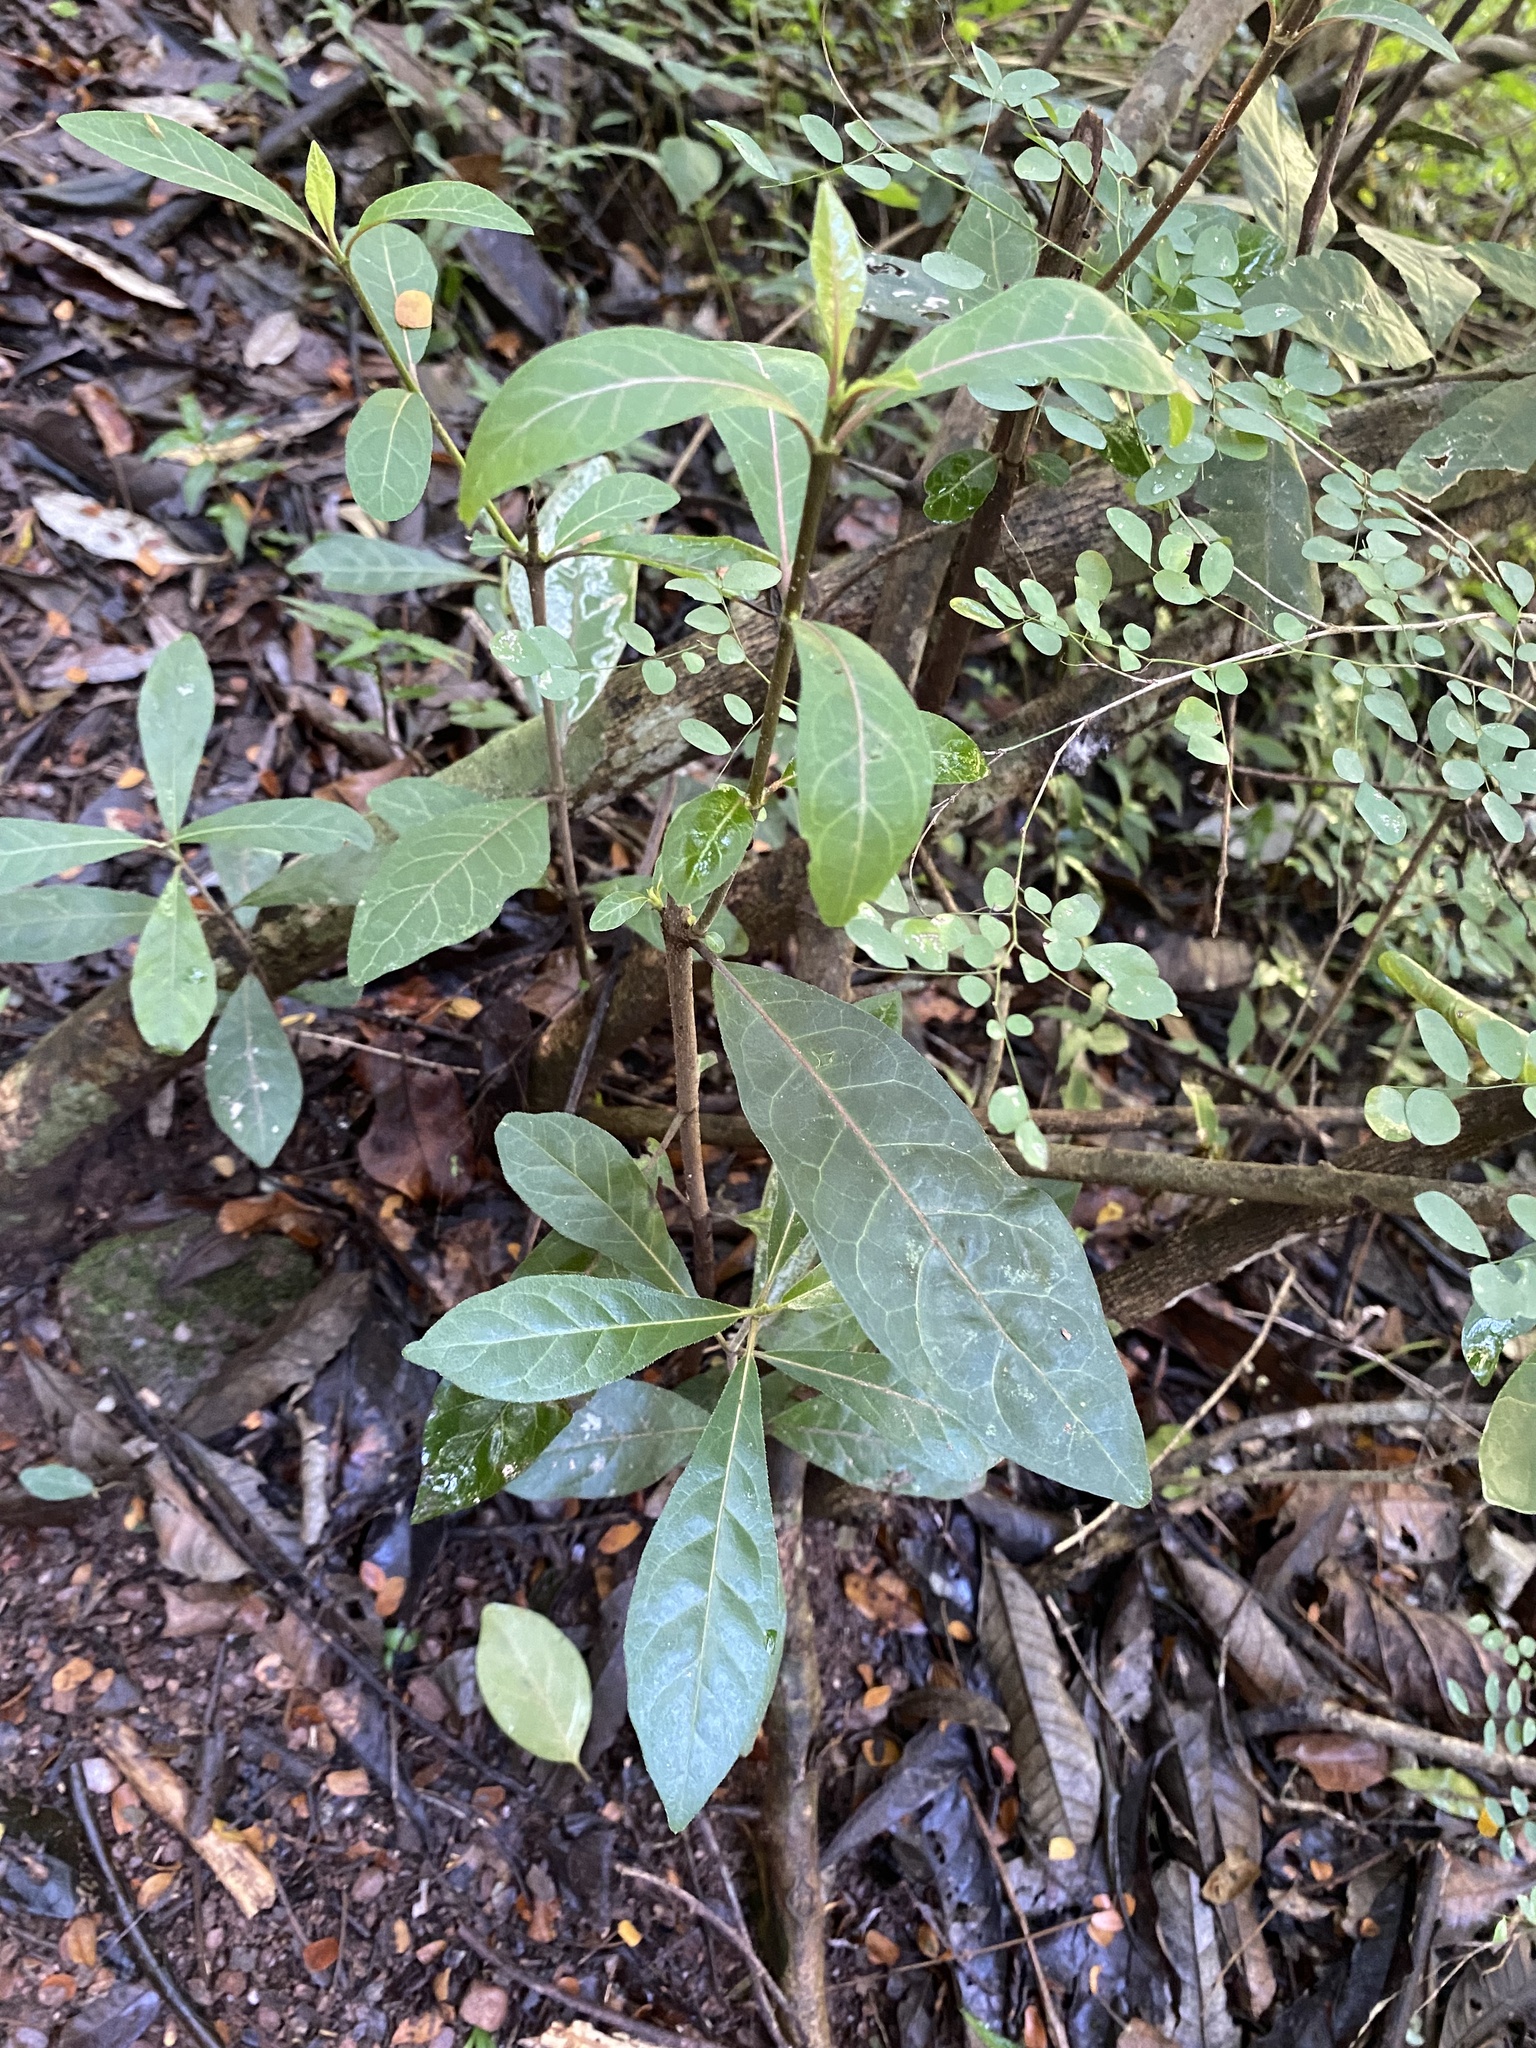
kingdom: Plantae
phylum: Tracheophyta
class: Magnoliopsida
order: Gentianales
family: Rubiaceae
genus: Rothmannia
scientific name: Rothmannia globosa
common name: September bells
